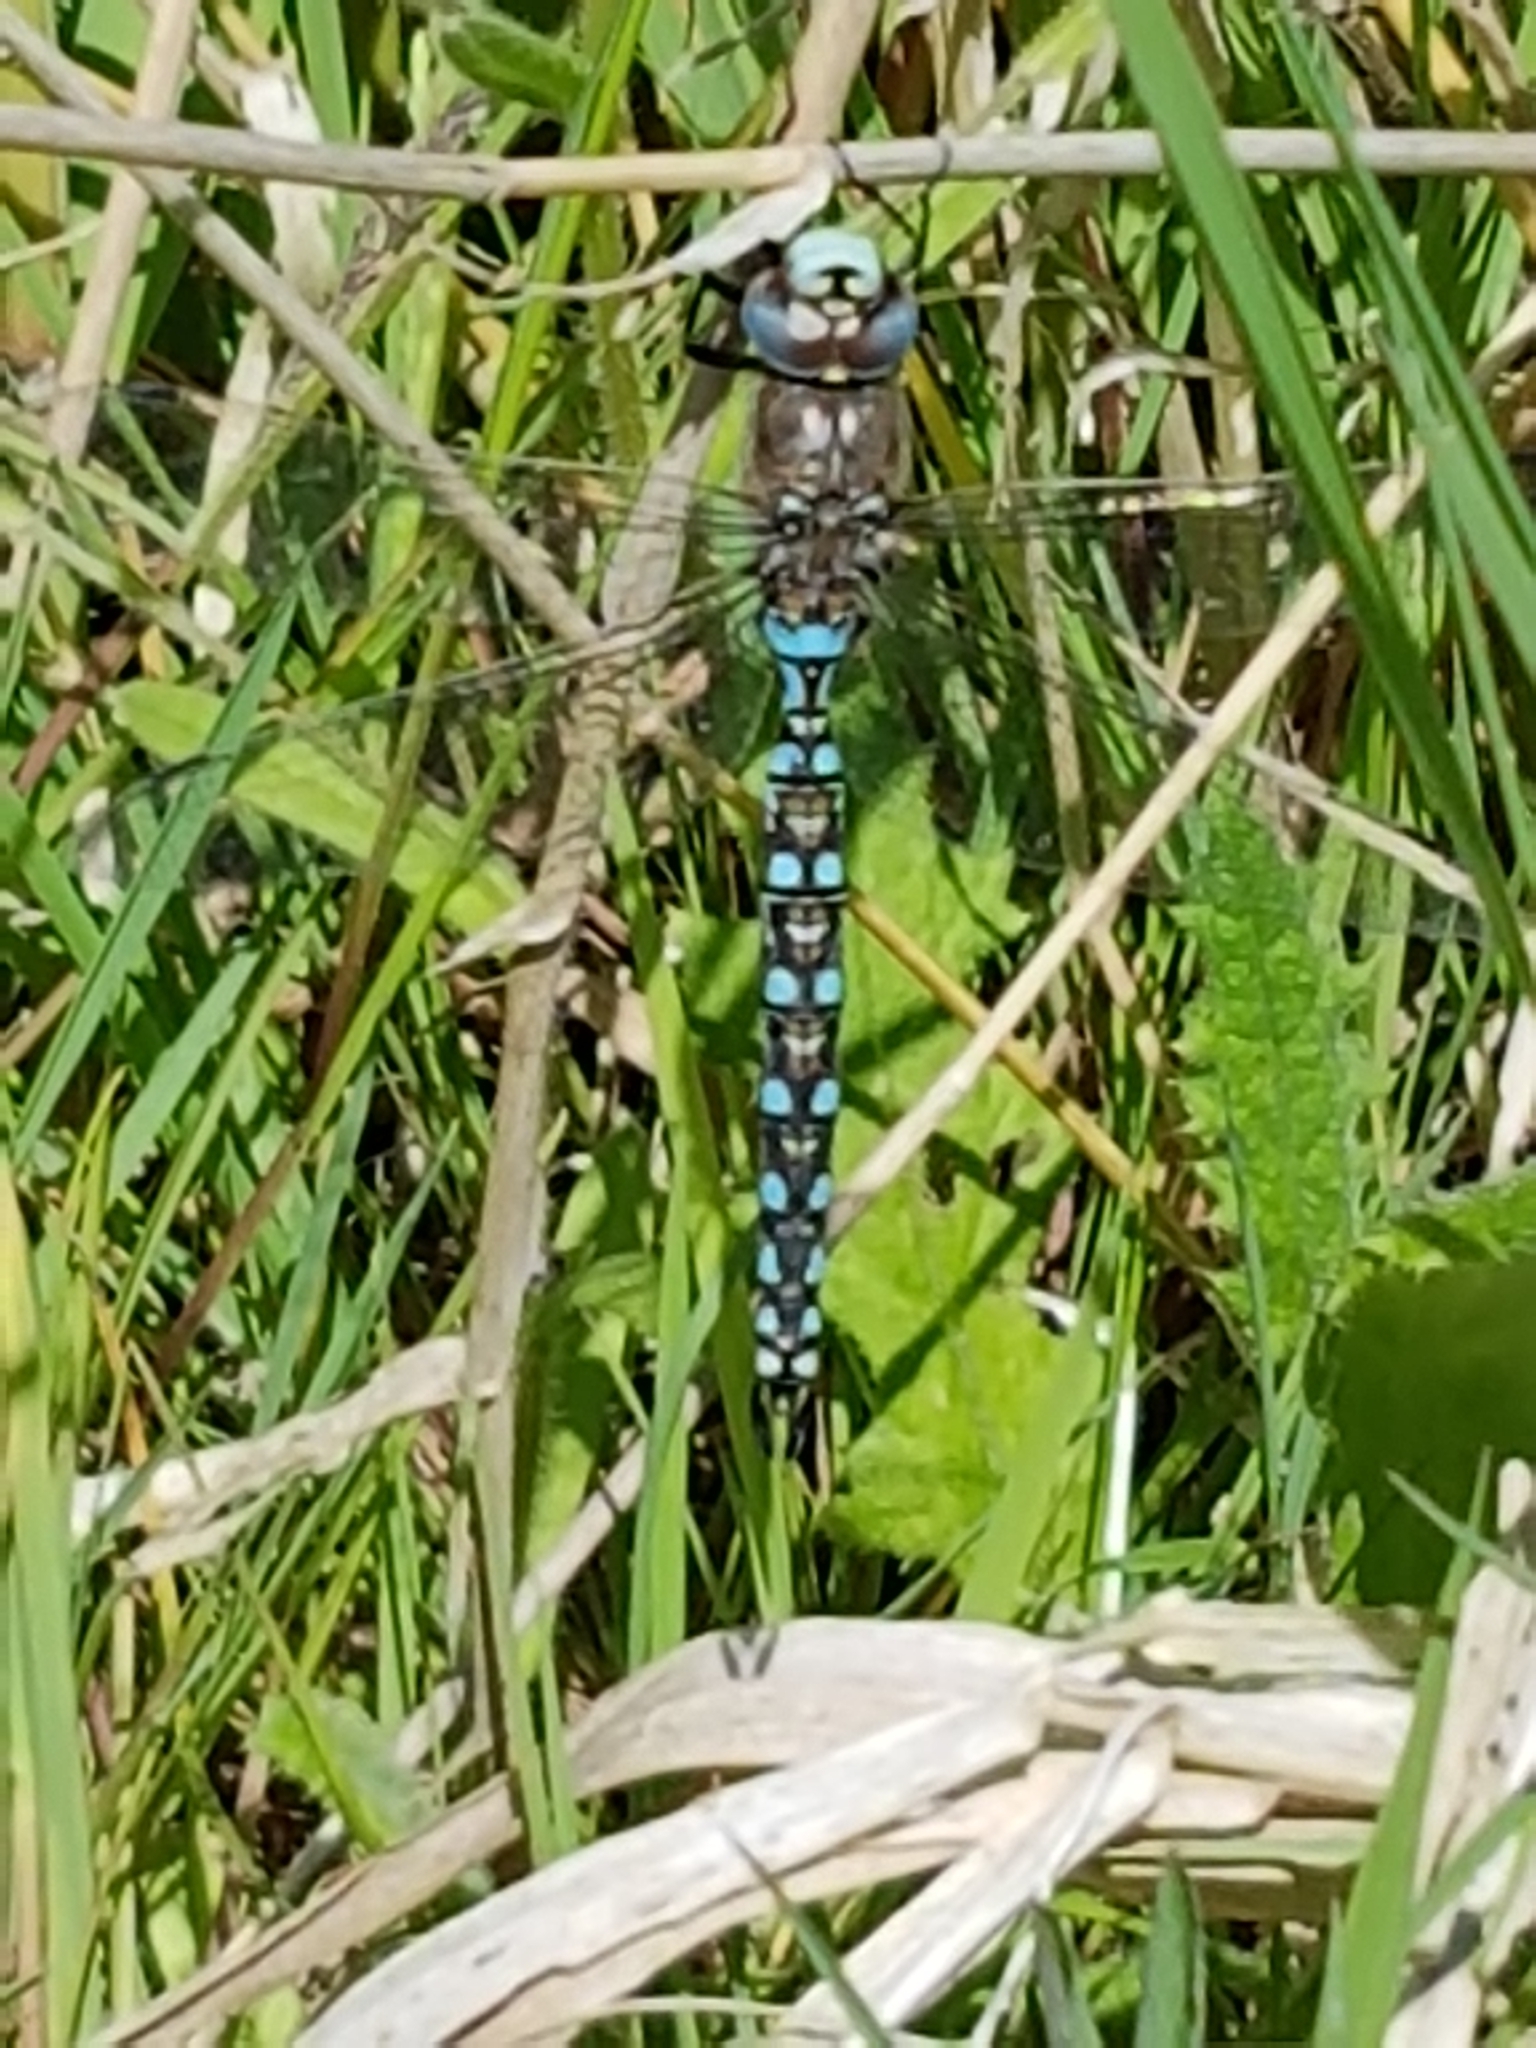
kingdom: Animalia
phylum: Arthropoda
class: Insecta
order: Odonata
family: Aeshnidae
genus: Rhionaeschna
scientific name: Rhionaeschna californica
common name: California darner
